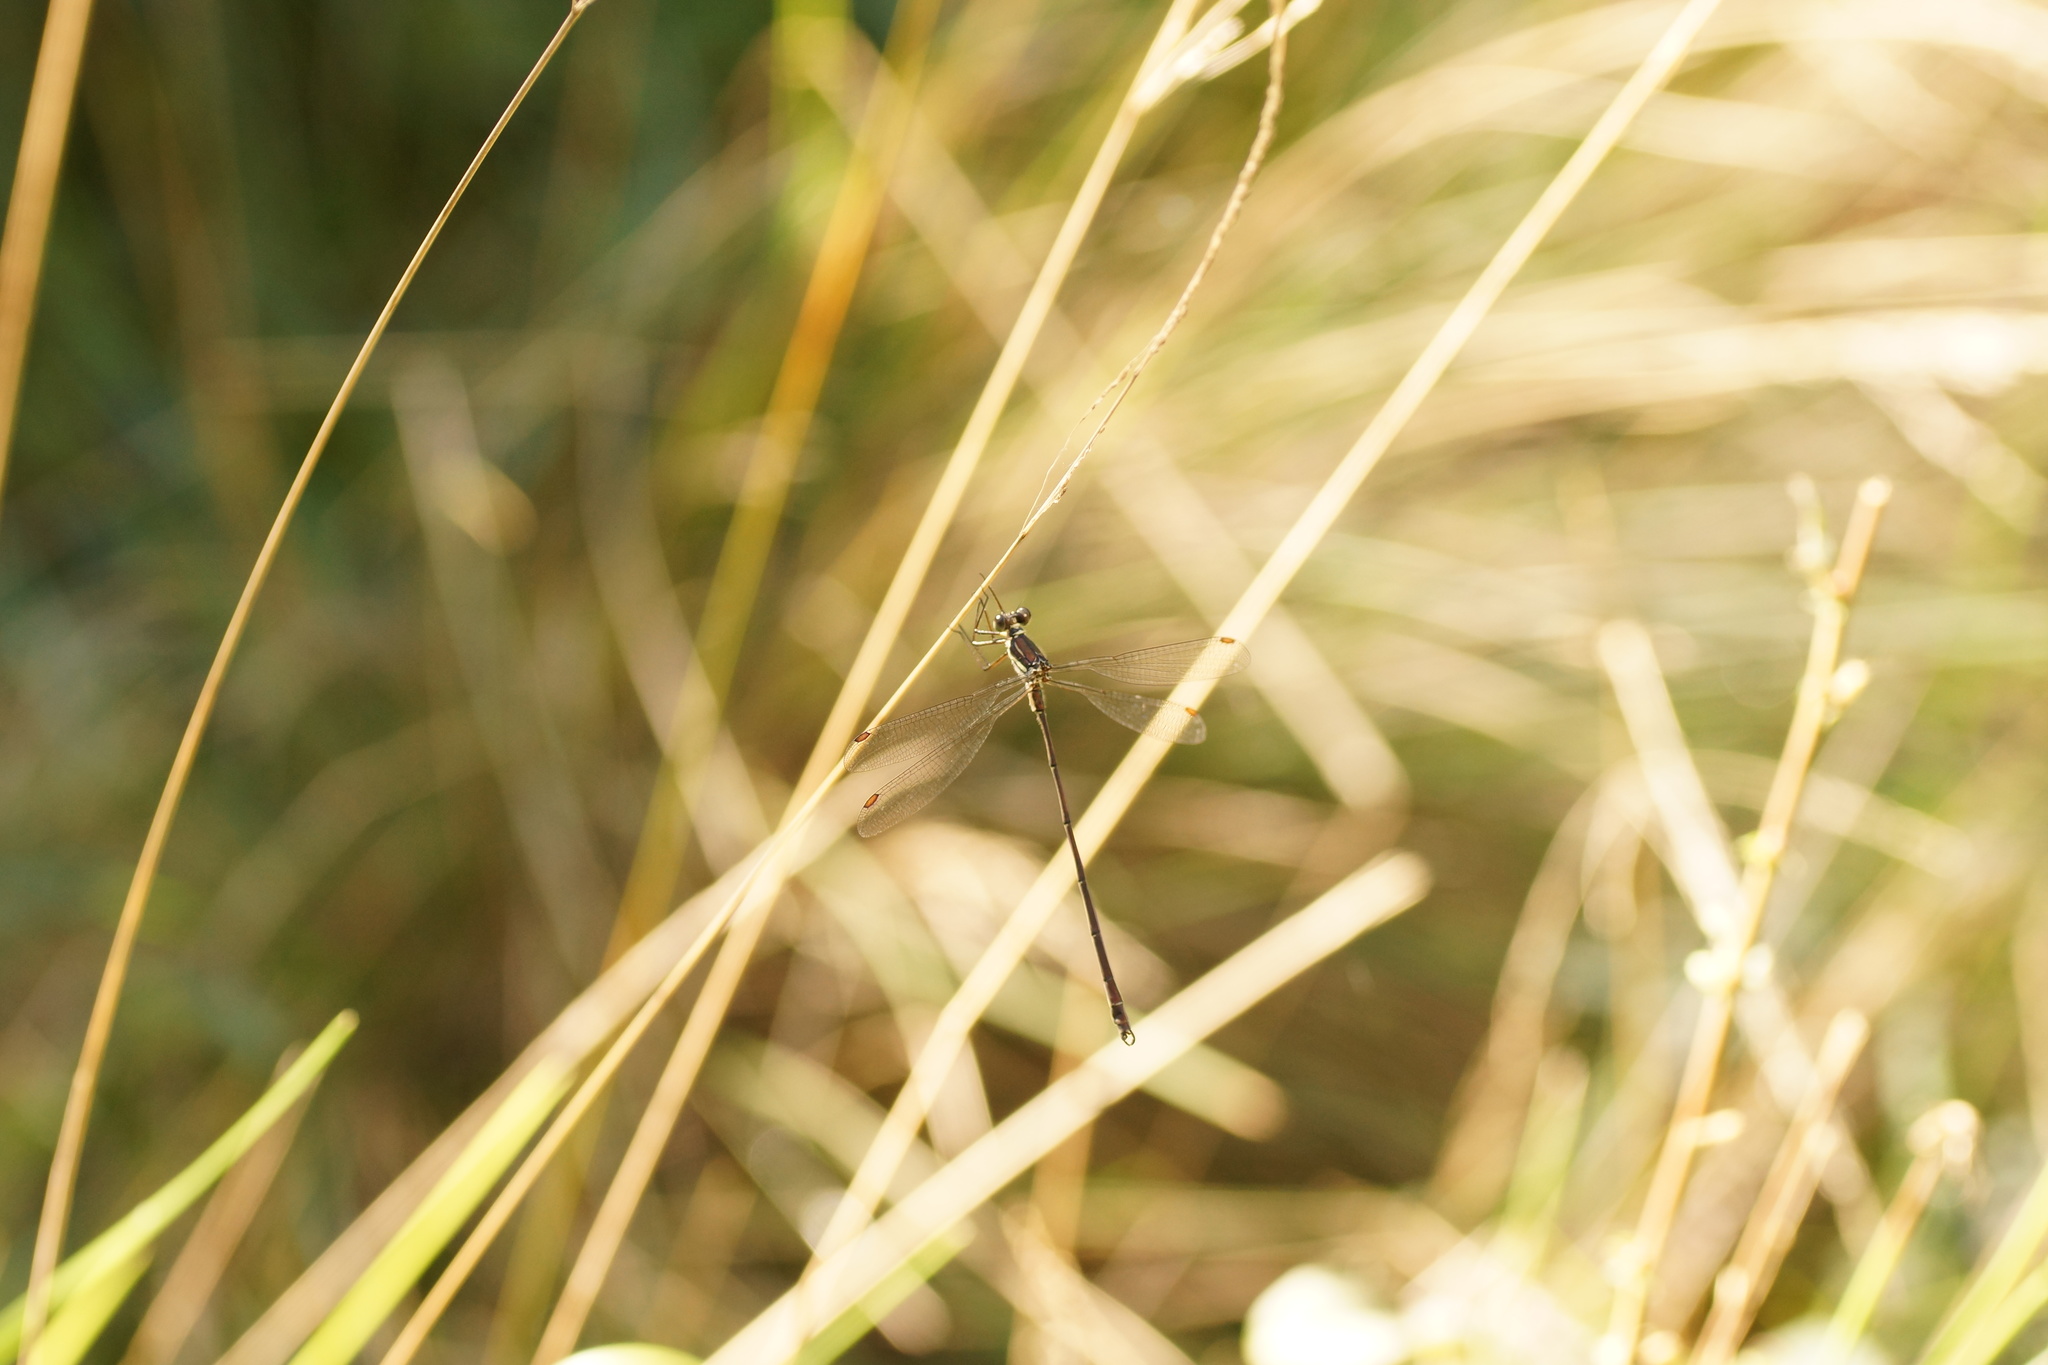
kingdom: Animalia
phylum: Arthropoda
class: Insecta
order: Odonata
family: Synlestidae
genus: Synlestes
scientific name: Synlestes weyersii
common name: Bronze needle
